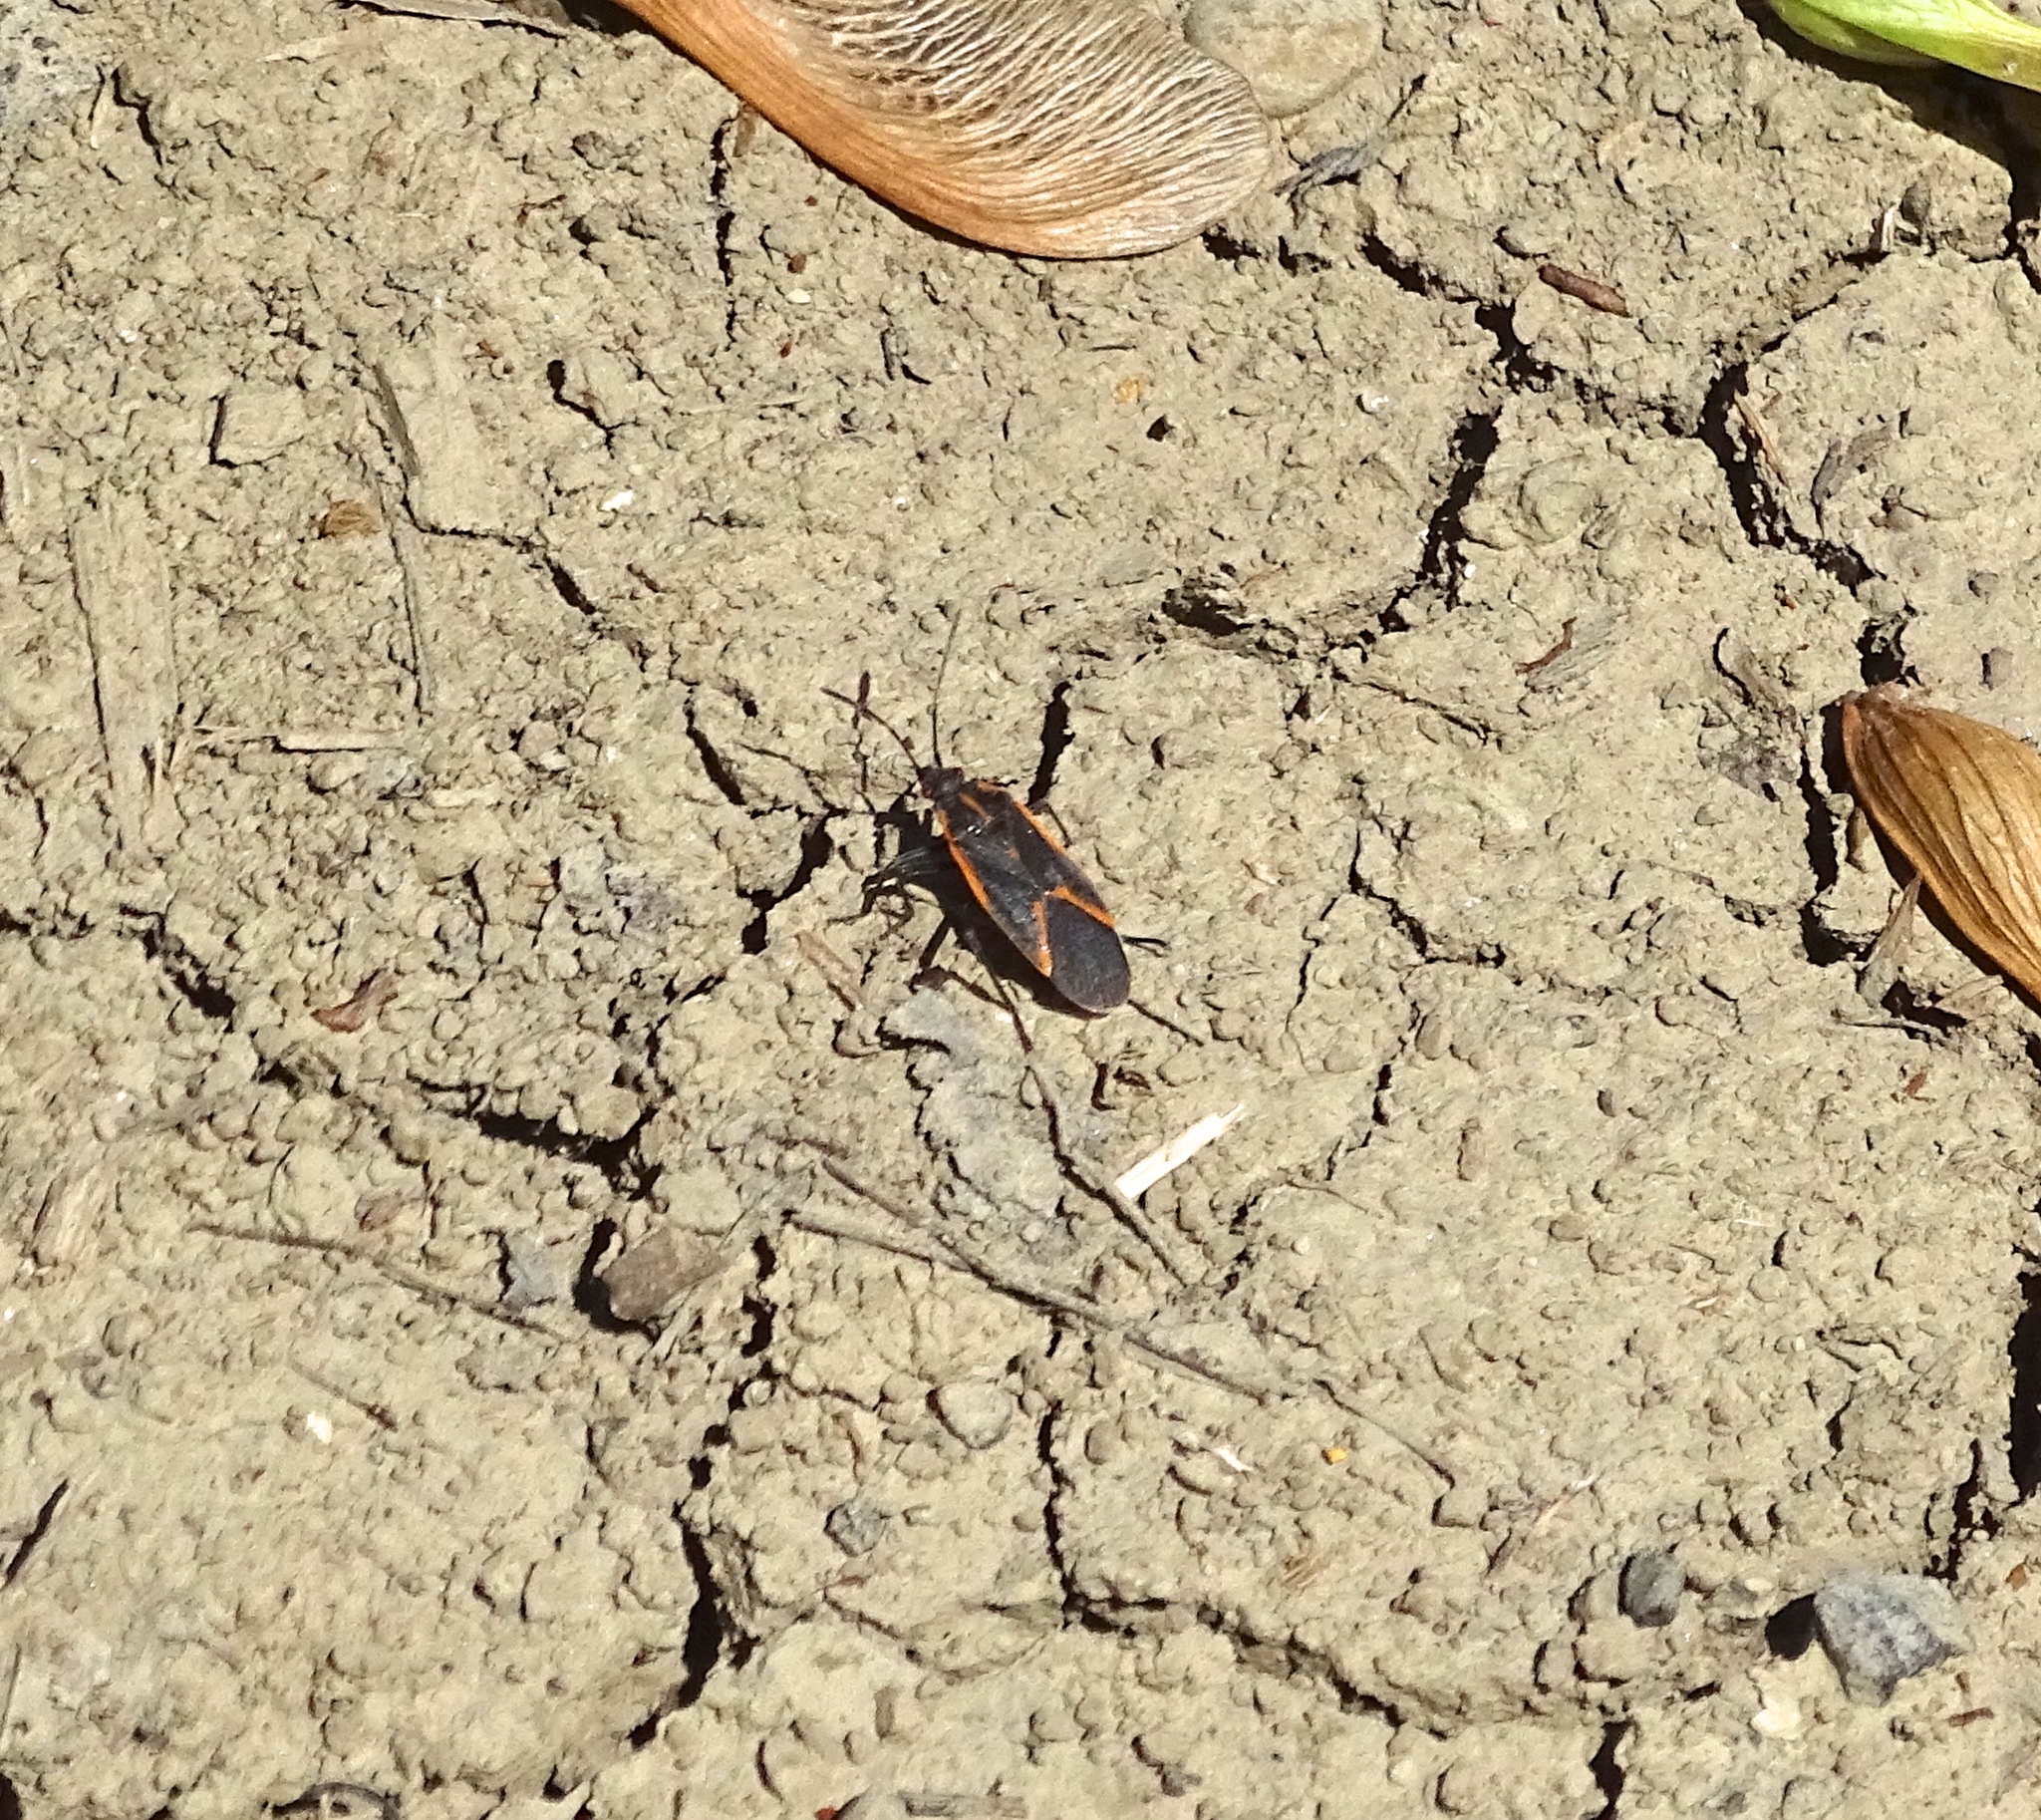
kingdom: Animalia
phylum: Arthropoda
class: Insecta
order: Hemiptera
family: Rhopalidae
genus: Boisea
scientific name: Boisea trivittata
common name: Boxelder bug
